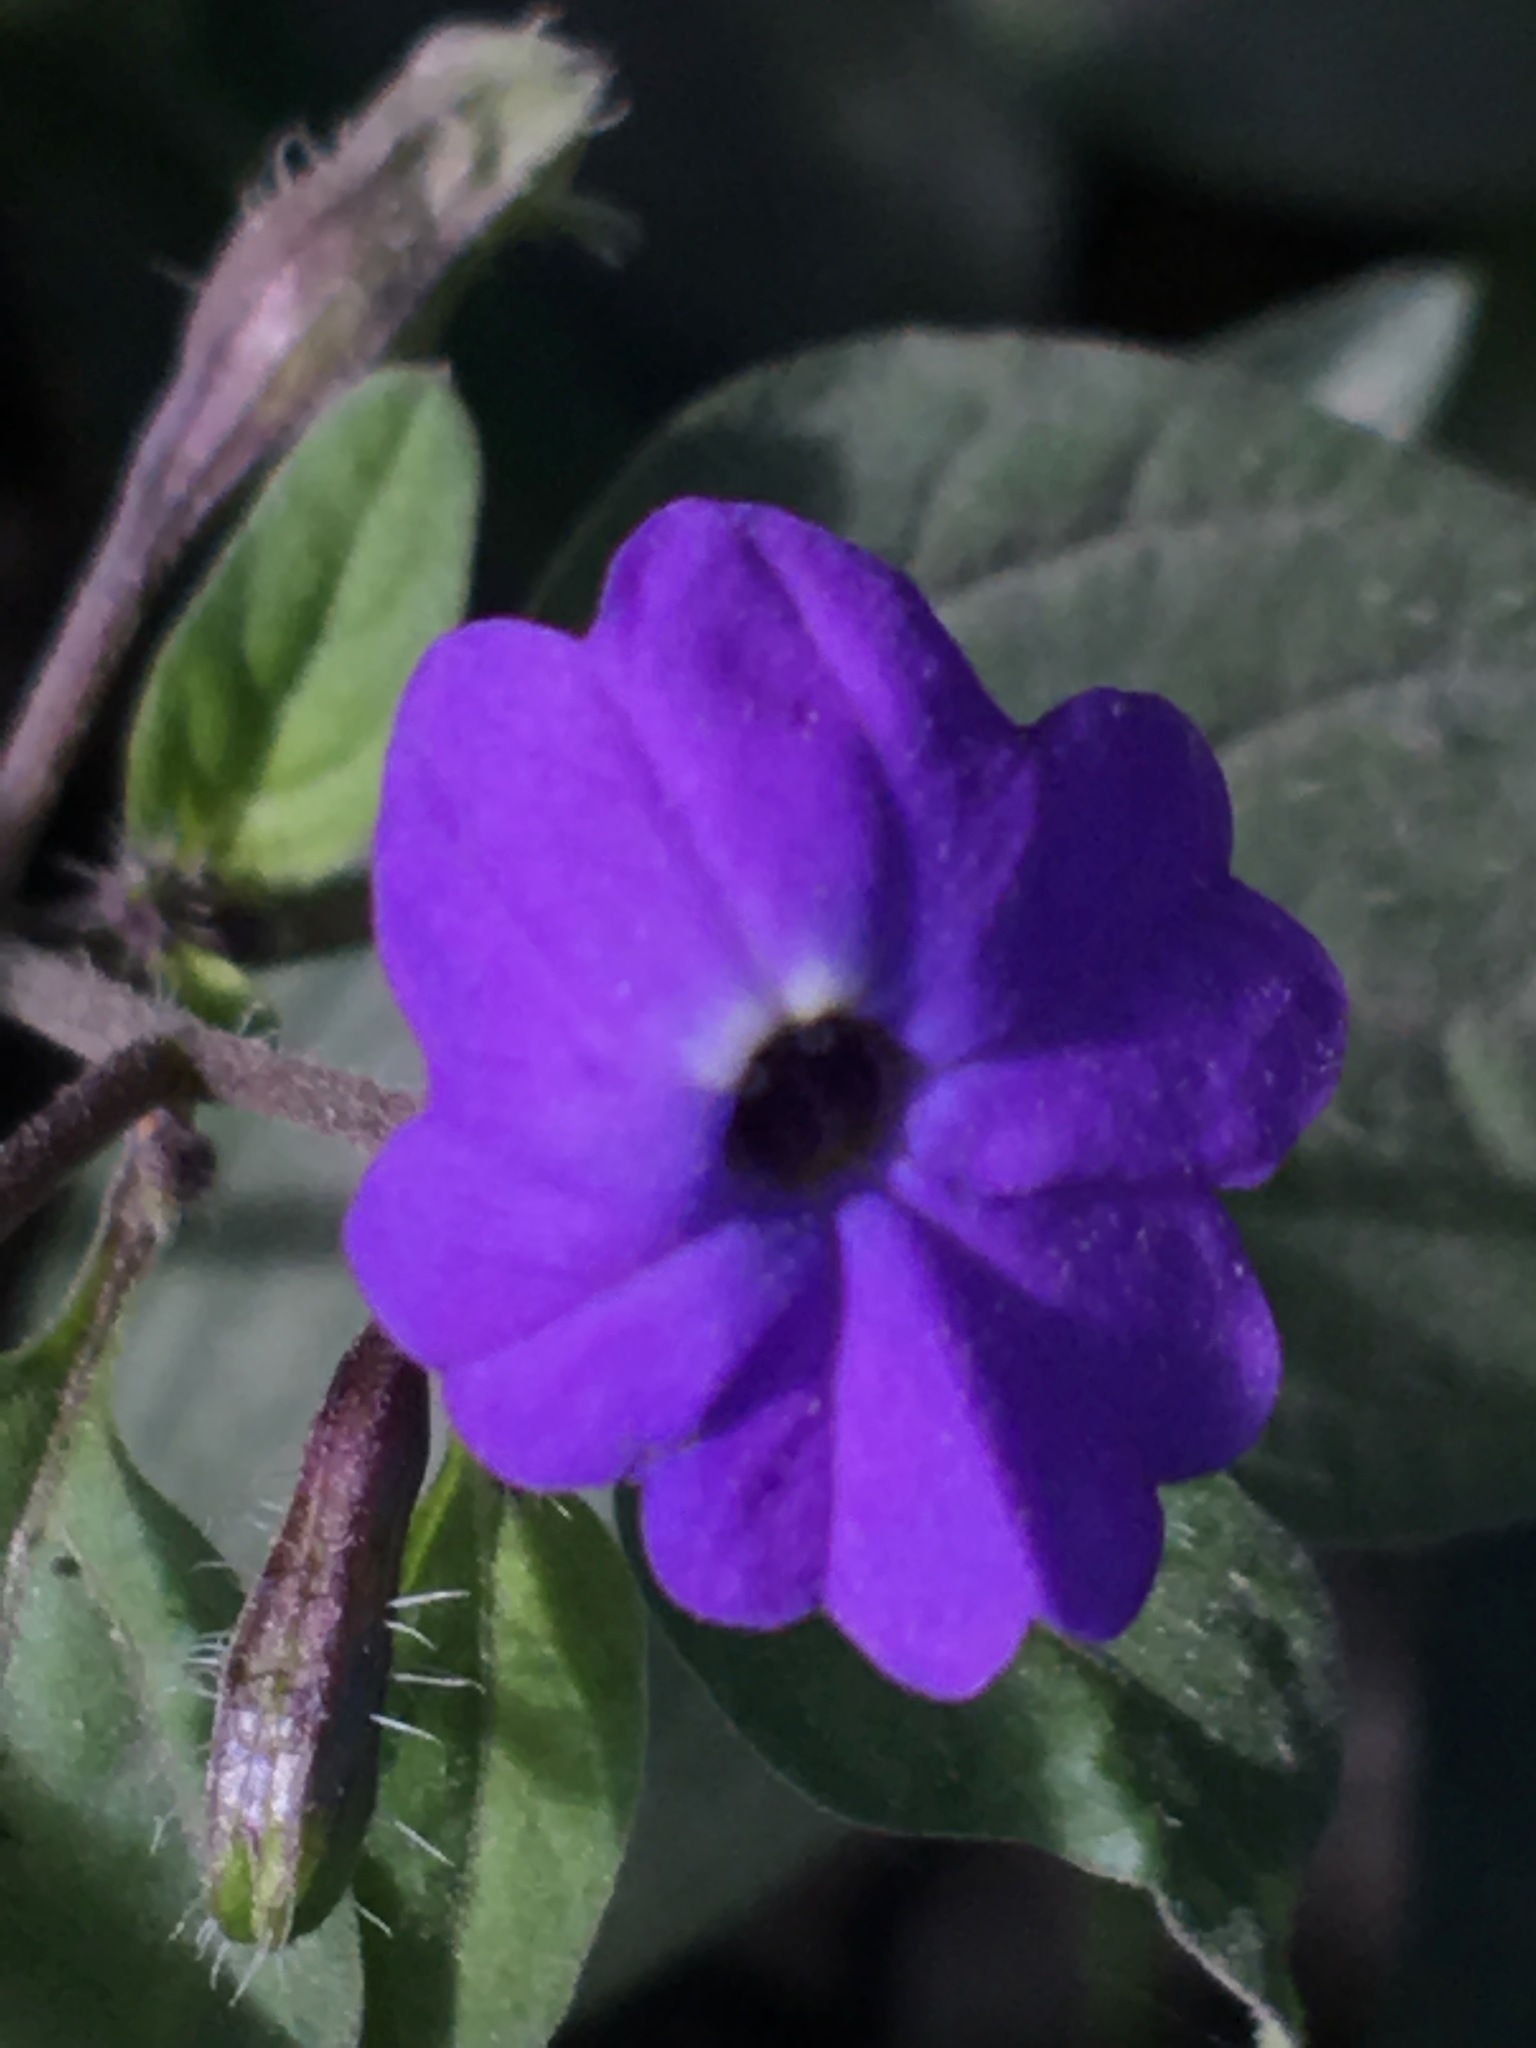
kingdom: Plantae
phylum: Tracheophyta
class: Magnoliopsida
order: Solanales
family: Solanaceae
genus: Browallia
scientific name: Browallia americana
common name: Jamaican forget-me-not
